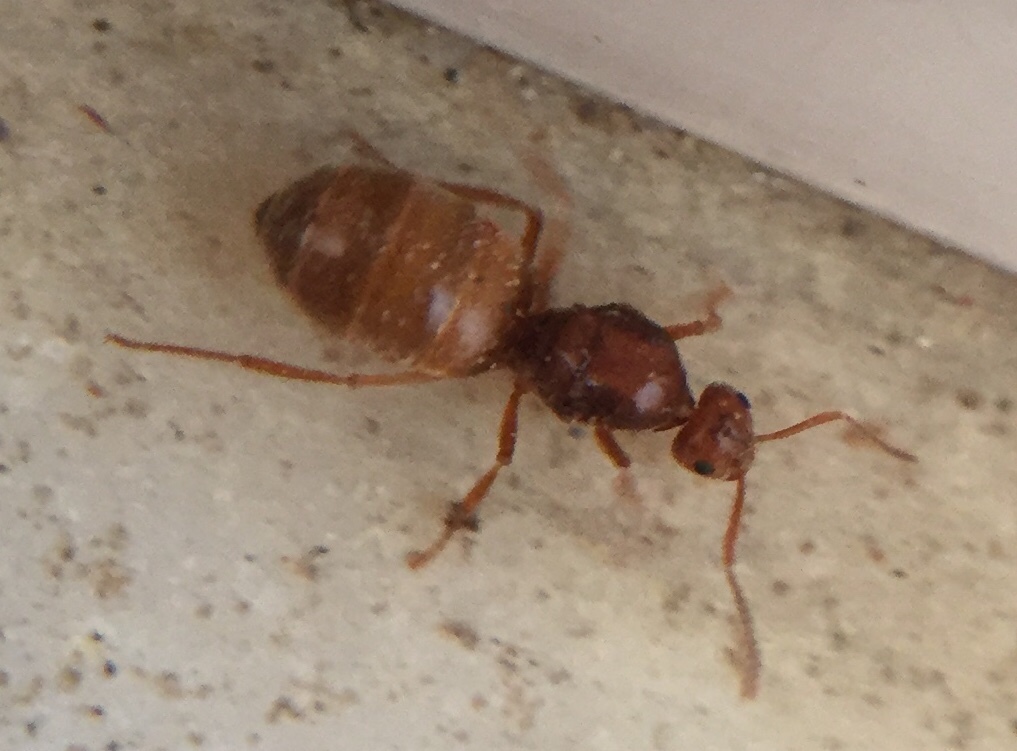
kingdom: Animalia
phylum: Arthropoda
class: Insecta
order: Hymenoptera
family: Formicidae
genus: Prenolepis
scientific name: Prenolepis nitens
